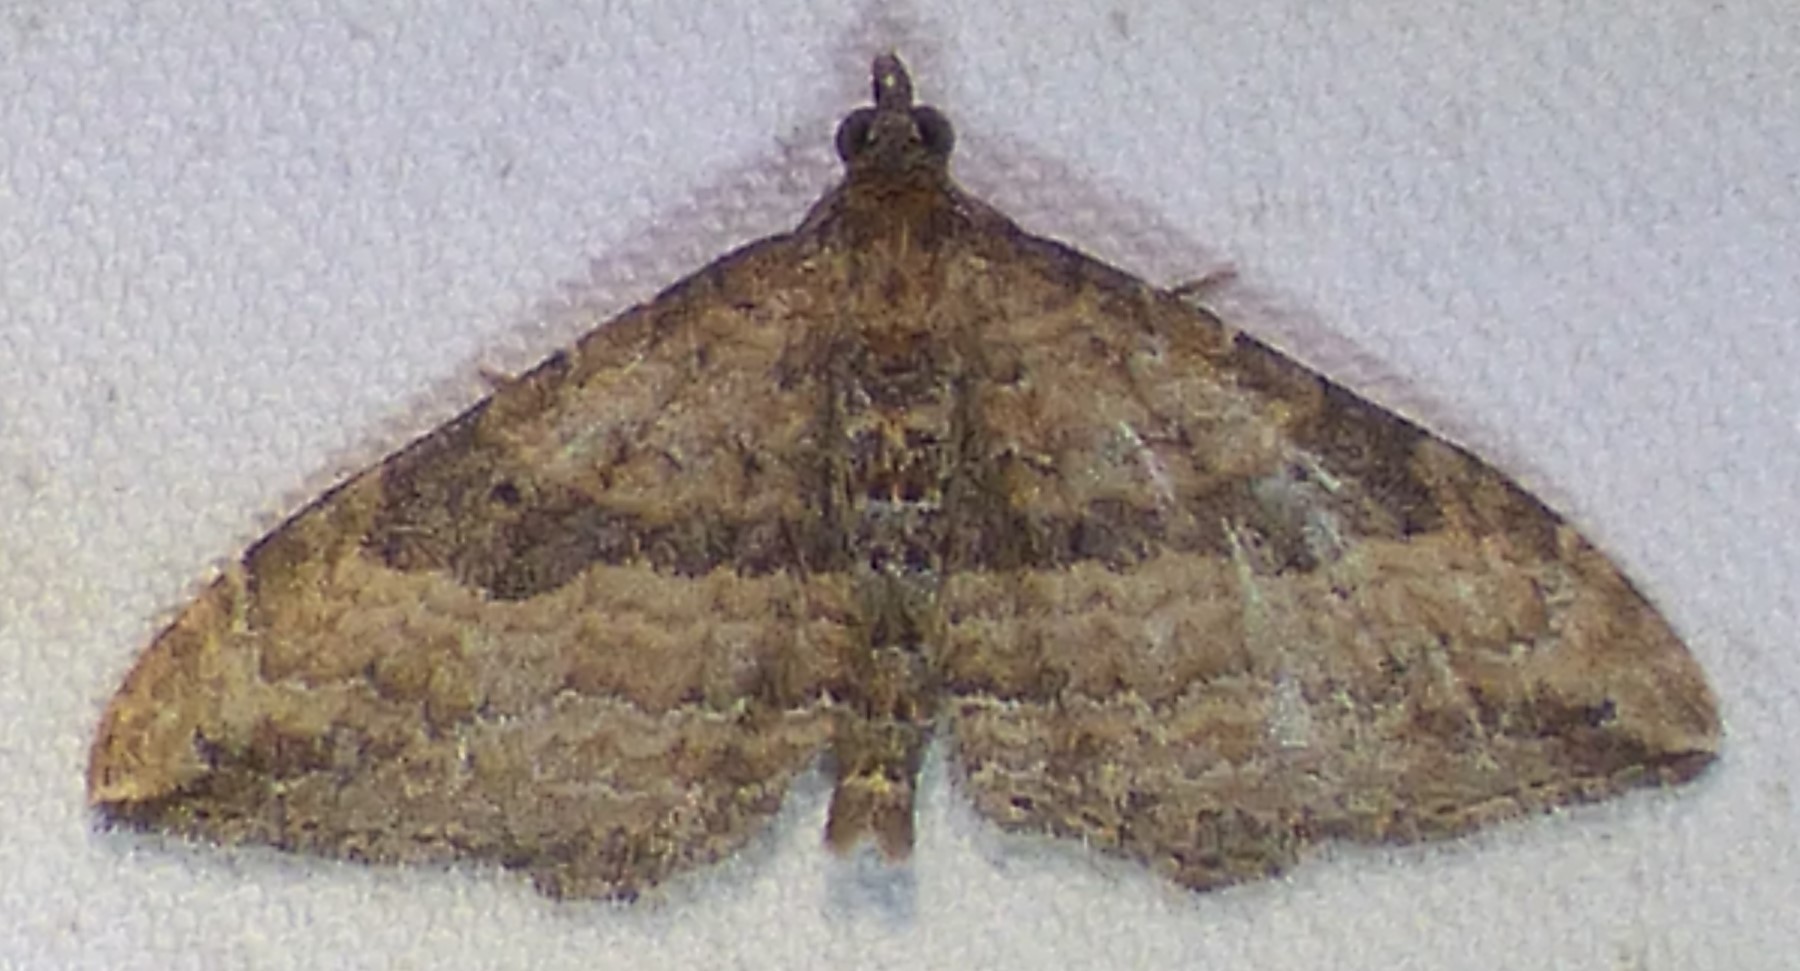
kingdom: Animalia
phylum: Arthropoda
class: Insecta
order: Lepidoptera
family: Geometridae
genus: Orthonama
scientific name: Orthonama obstipata
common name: The gem
